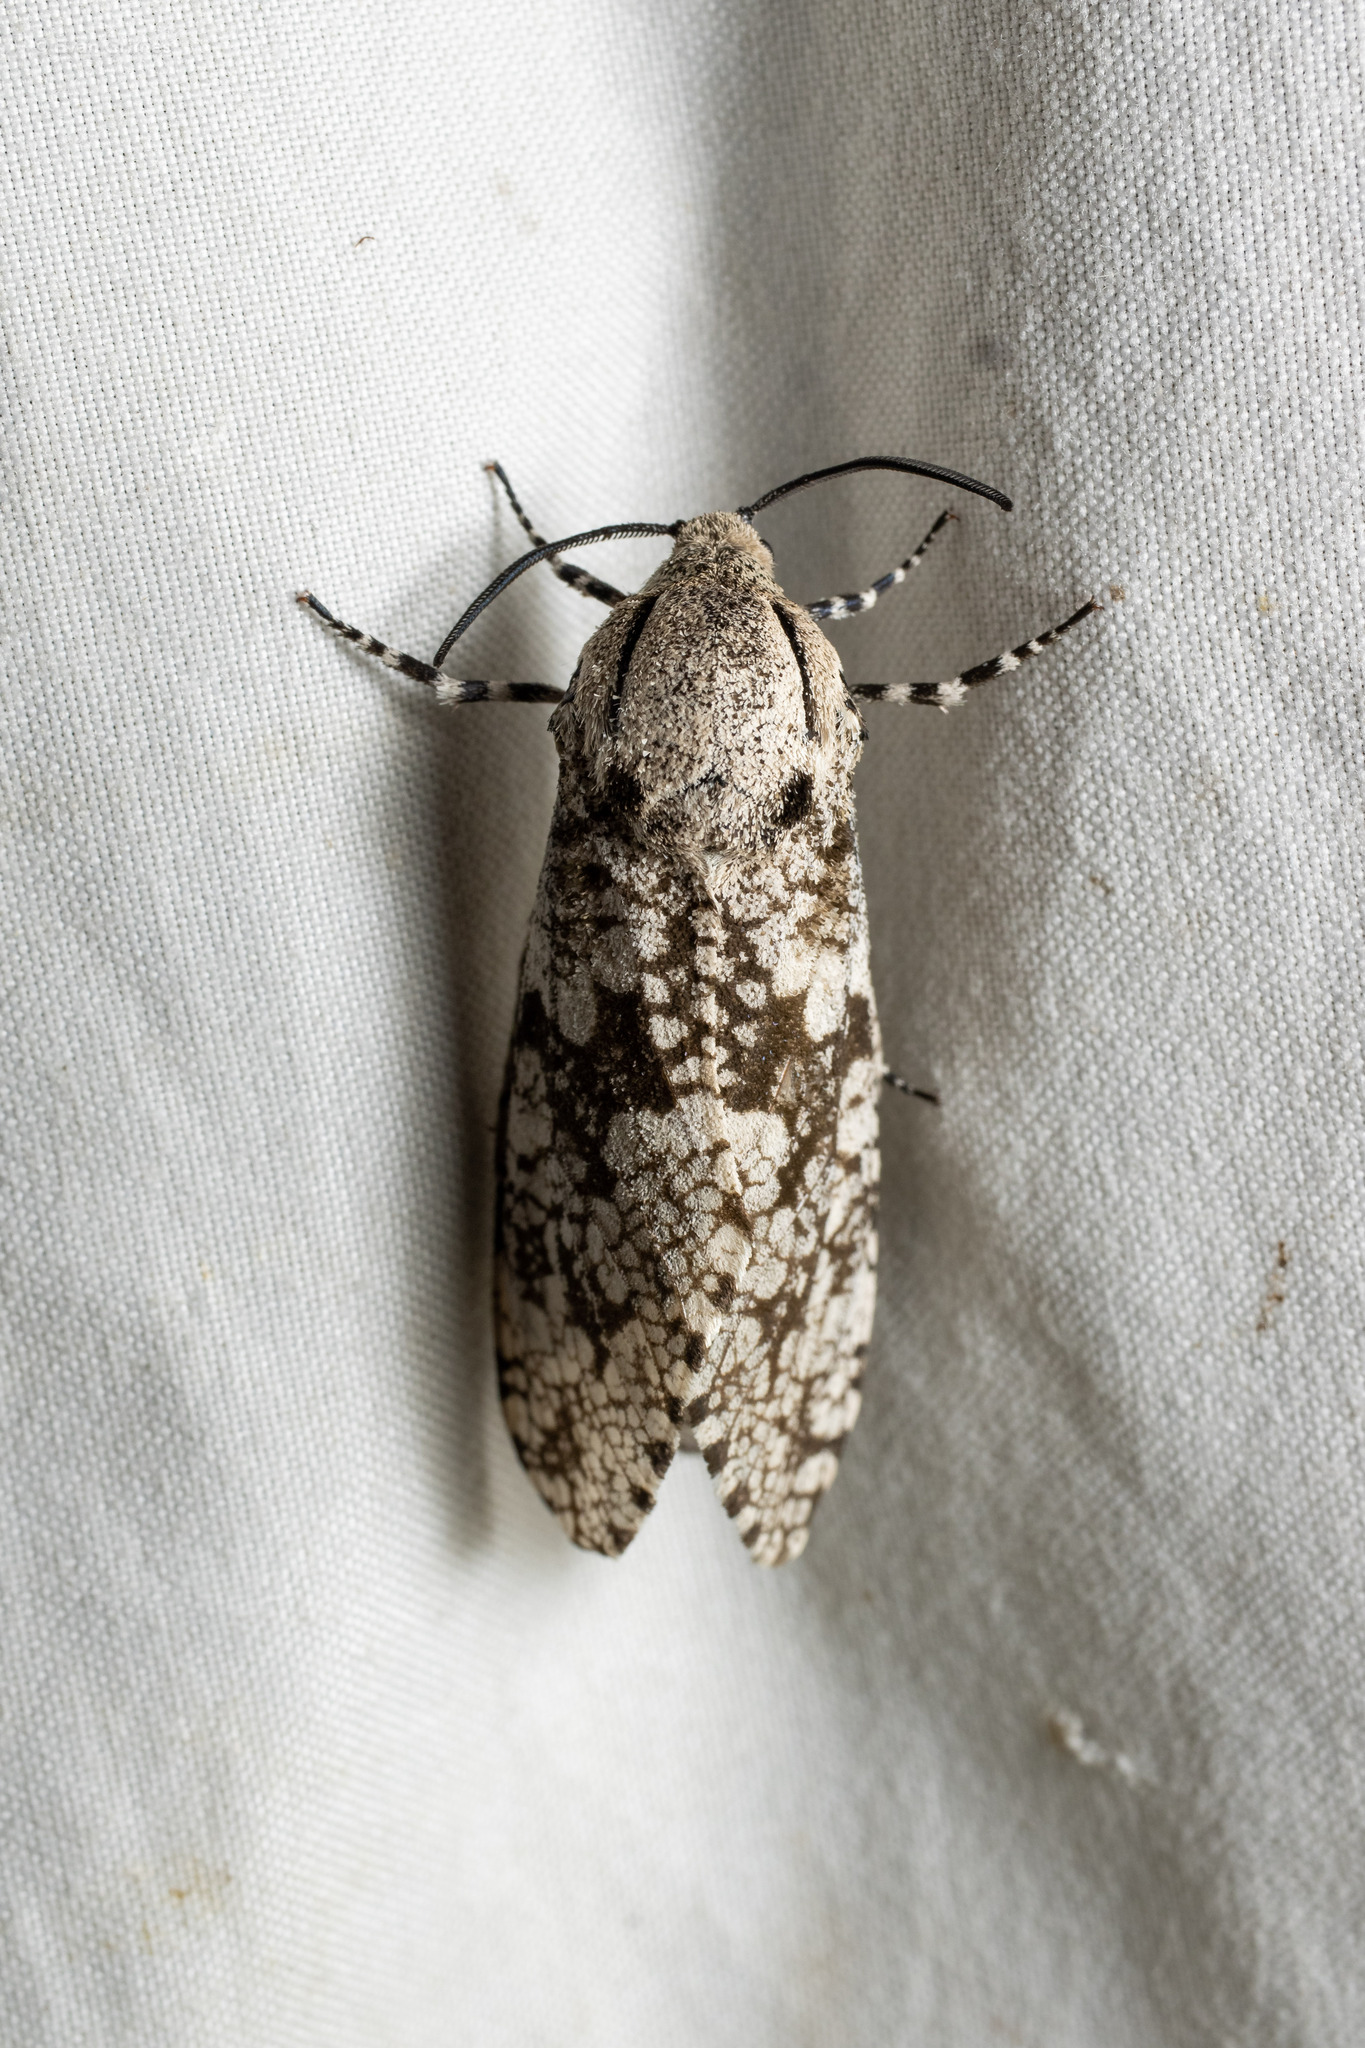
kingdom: Animalia
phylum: Arthropoda
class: Insecta
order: Lepidoptera
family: Cossidae
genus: Prionoxystus
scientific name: Prionoxystus robiniae
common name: Carpenterworm
